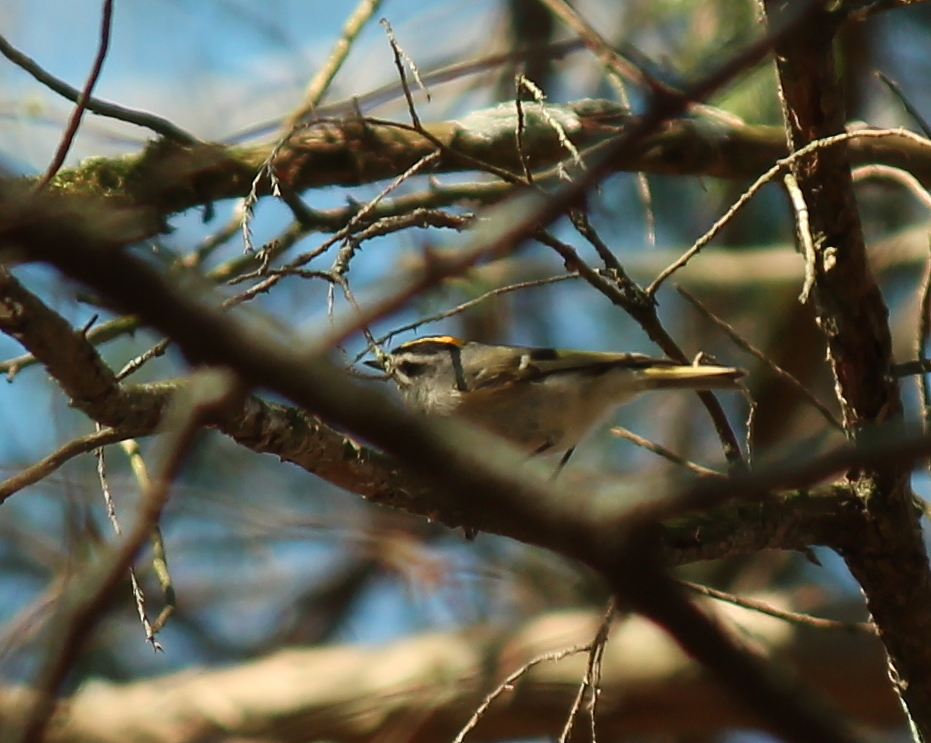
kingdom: Animalia
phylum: Chordata
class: Aves
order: Passeriformes
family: Regulidae
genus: Regulus
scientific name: Regulus satrapa
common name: Golden-crowned kinglet
